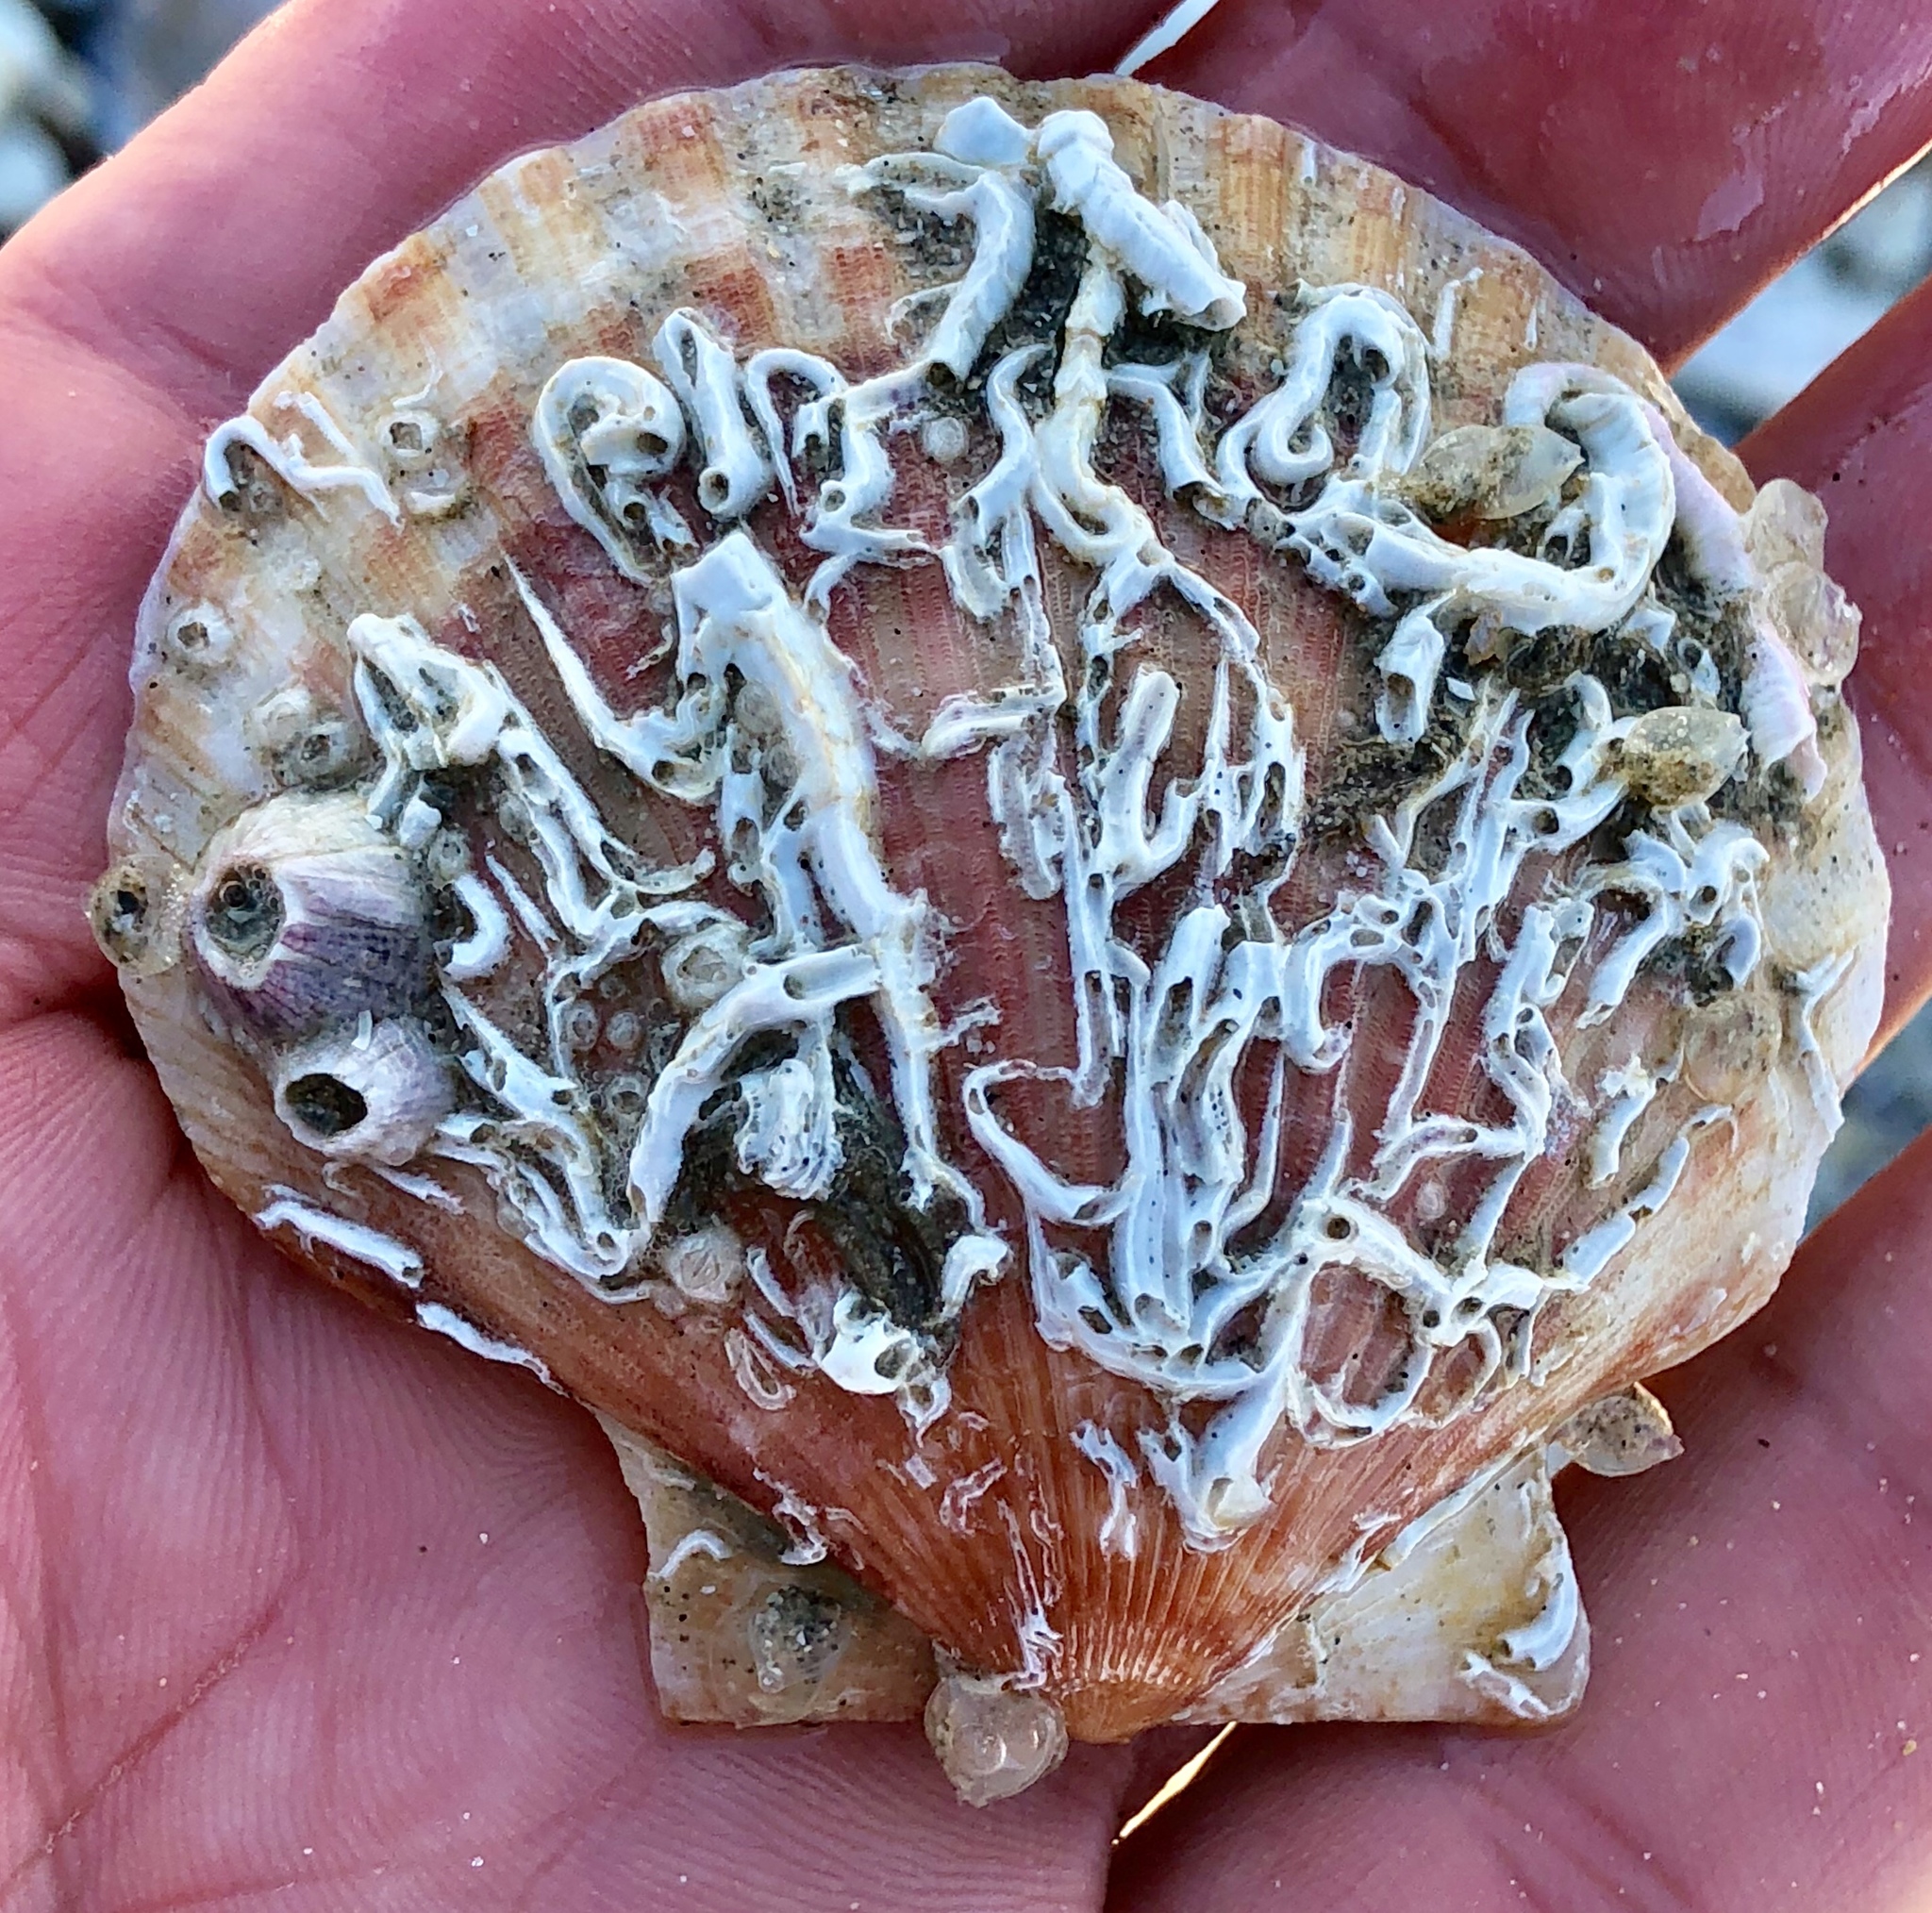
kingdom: Animalia
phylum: Mollusca
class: Bivalvia
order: Pectinida
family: Pectinidae
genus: Aequipecten
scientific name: Aequipecten opercularis
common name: Queen scallop
